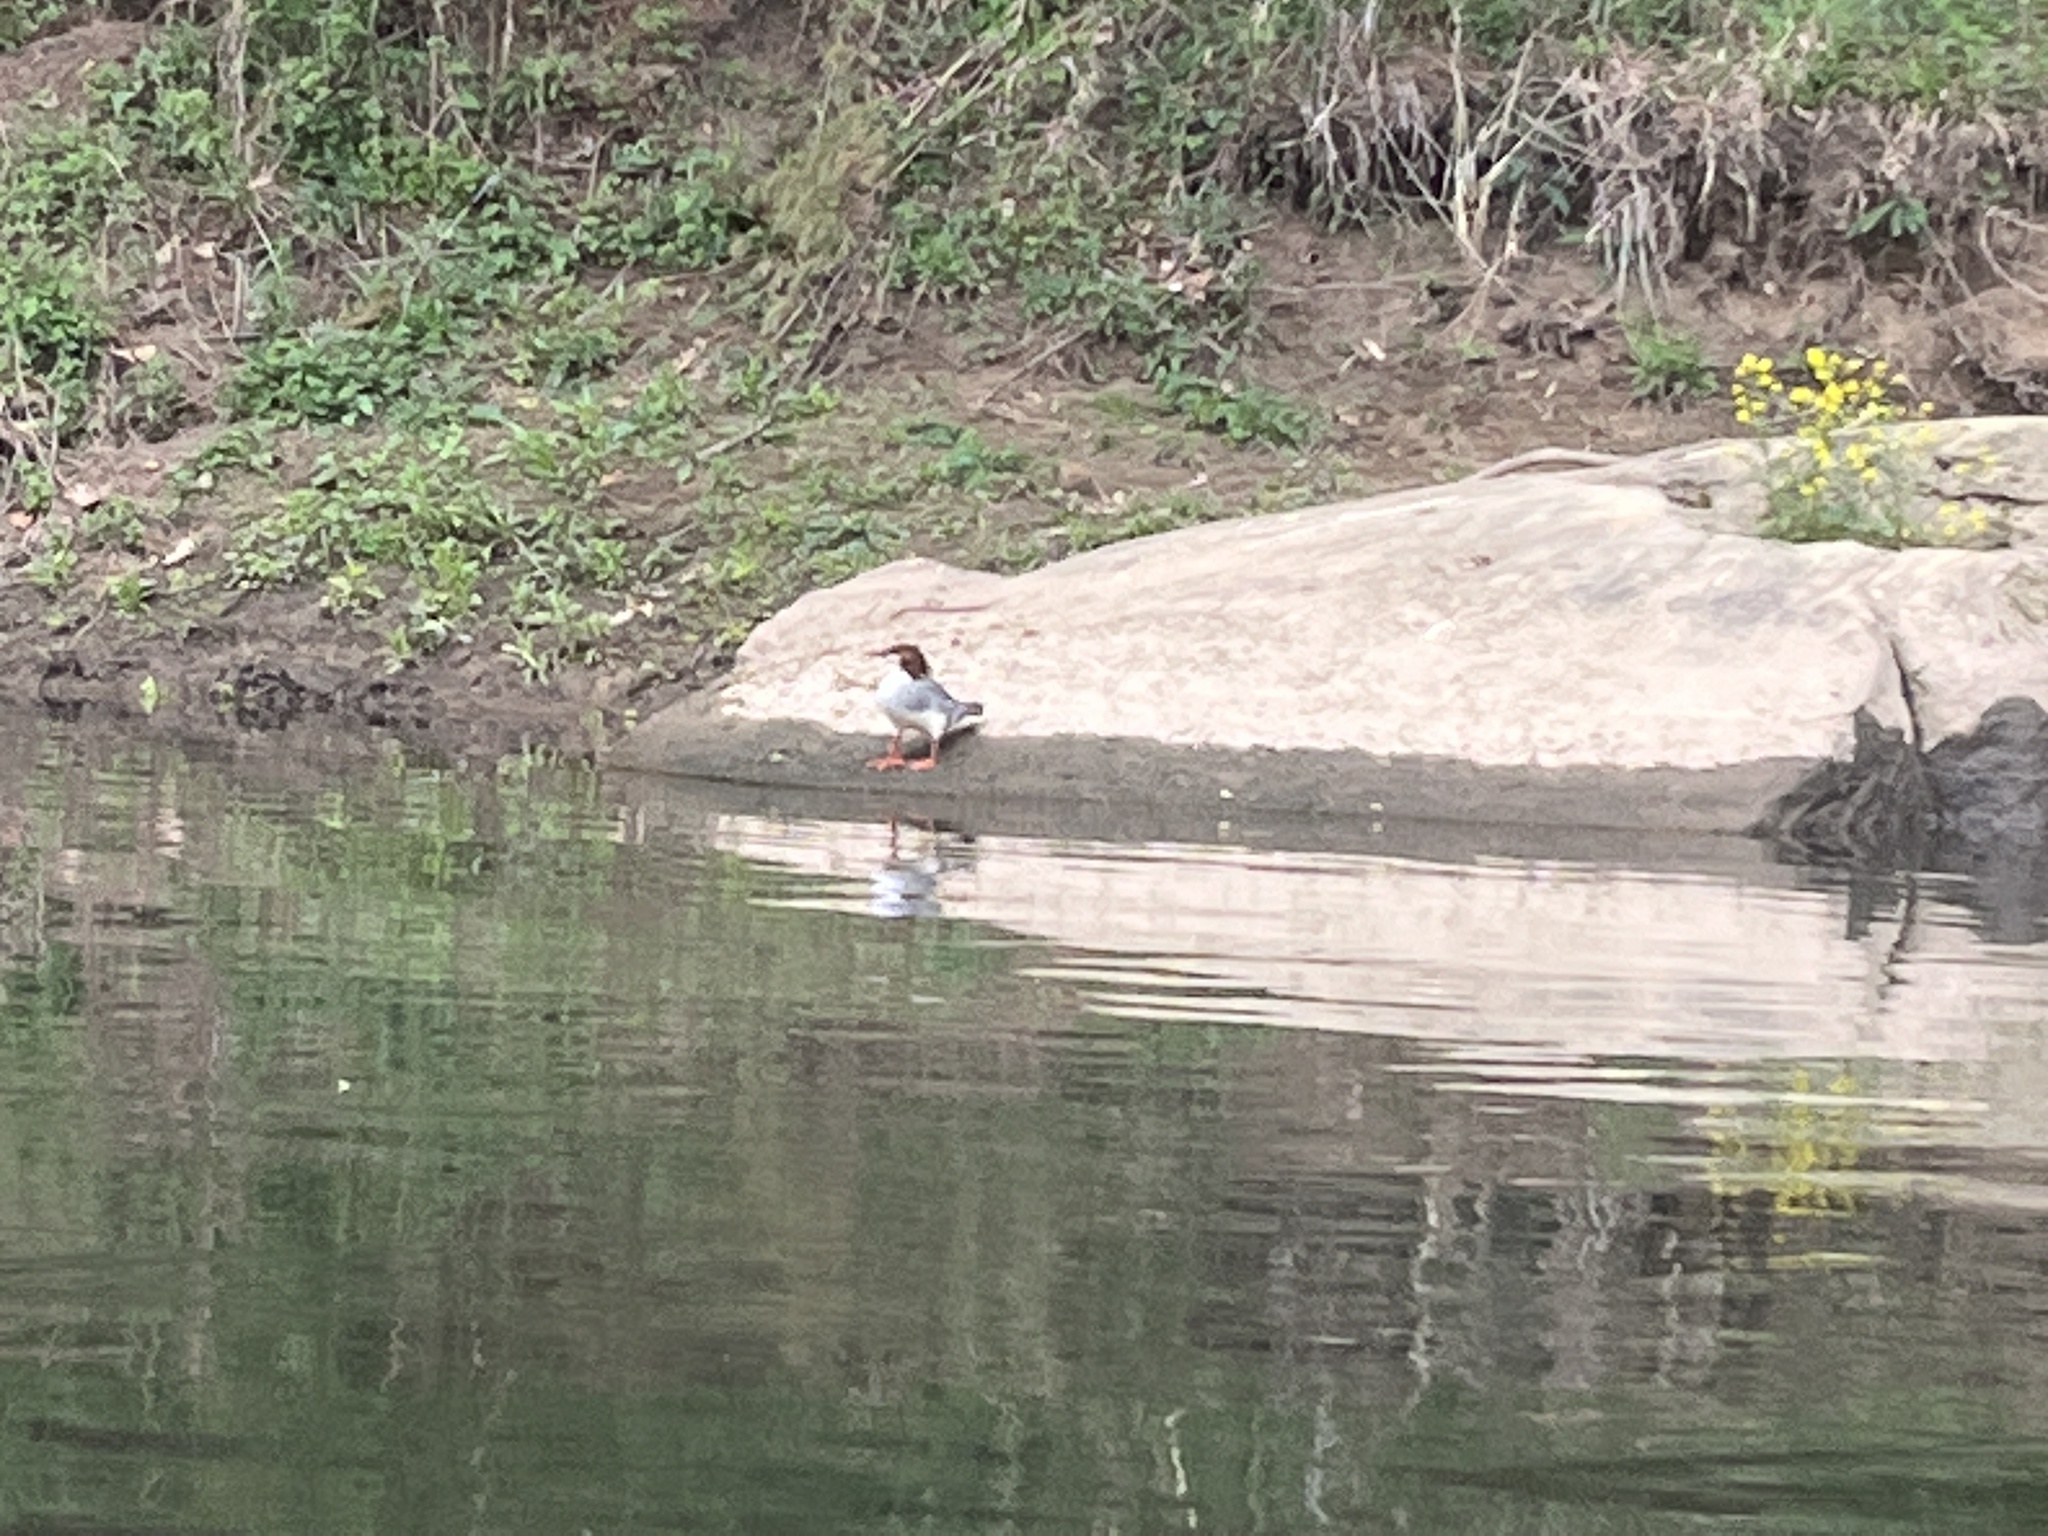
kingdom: Animalia
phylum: Chordata
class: Aves
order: Anseriformes
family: Anatidae
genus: Mergus
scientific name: Mergus merganser
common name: Common merganser
